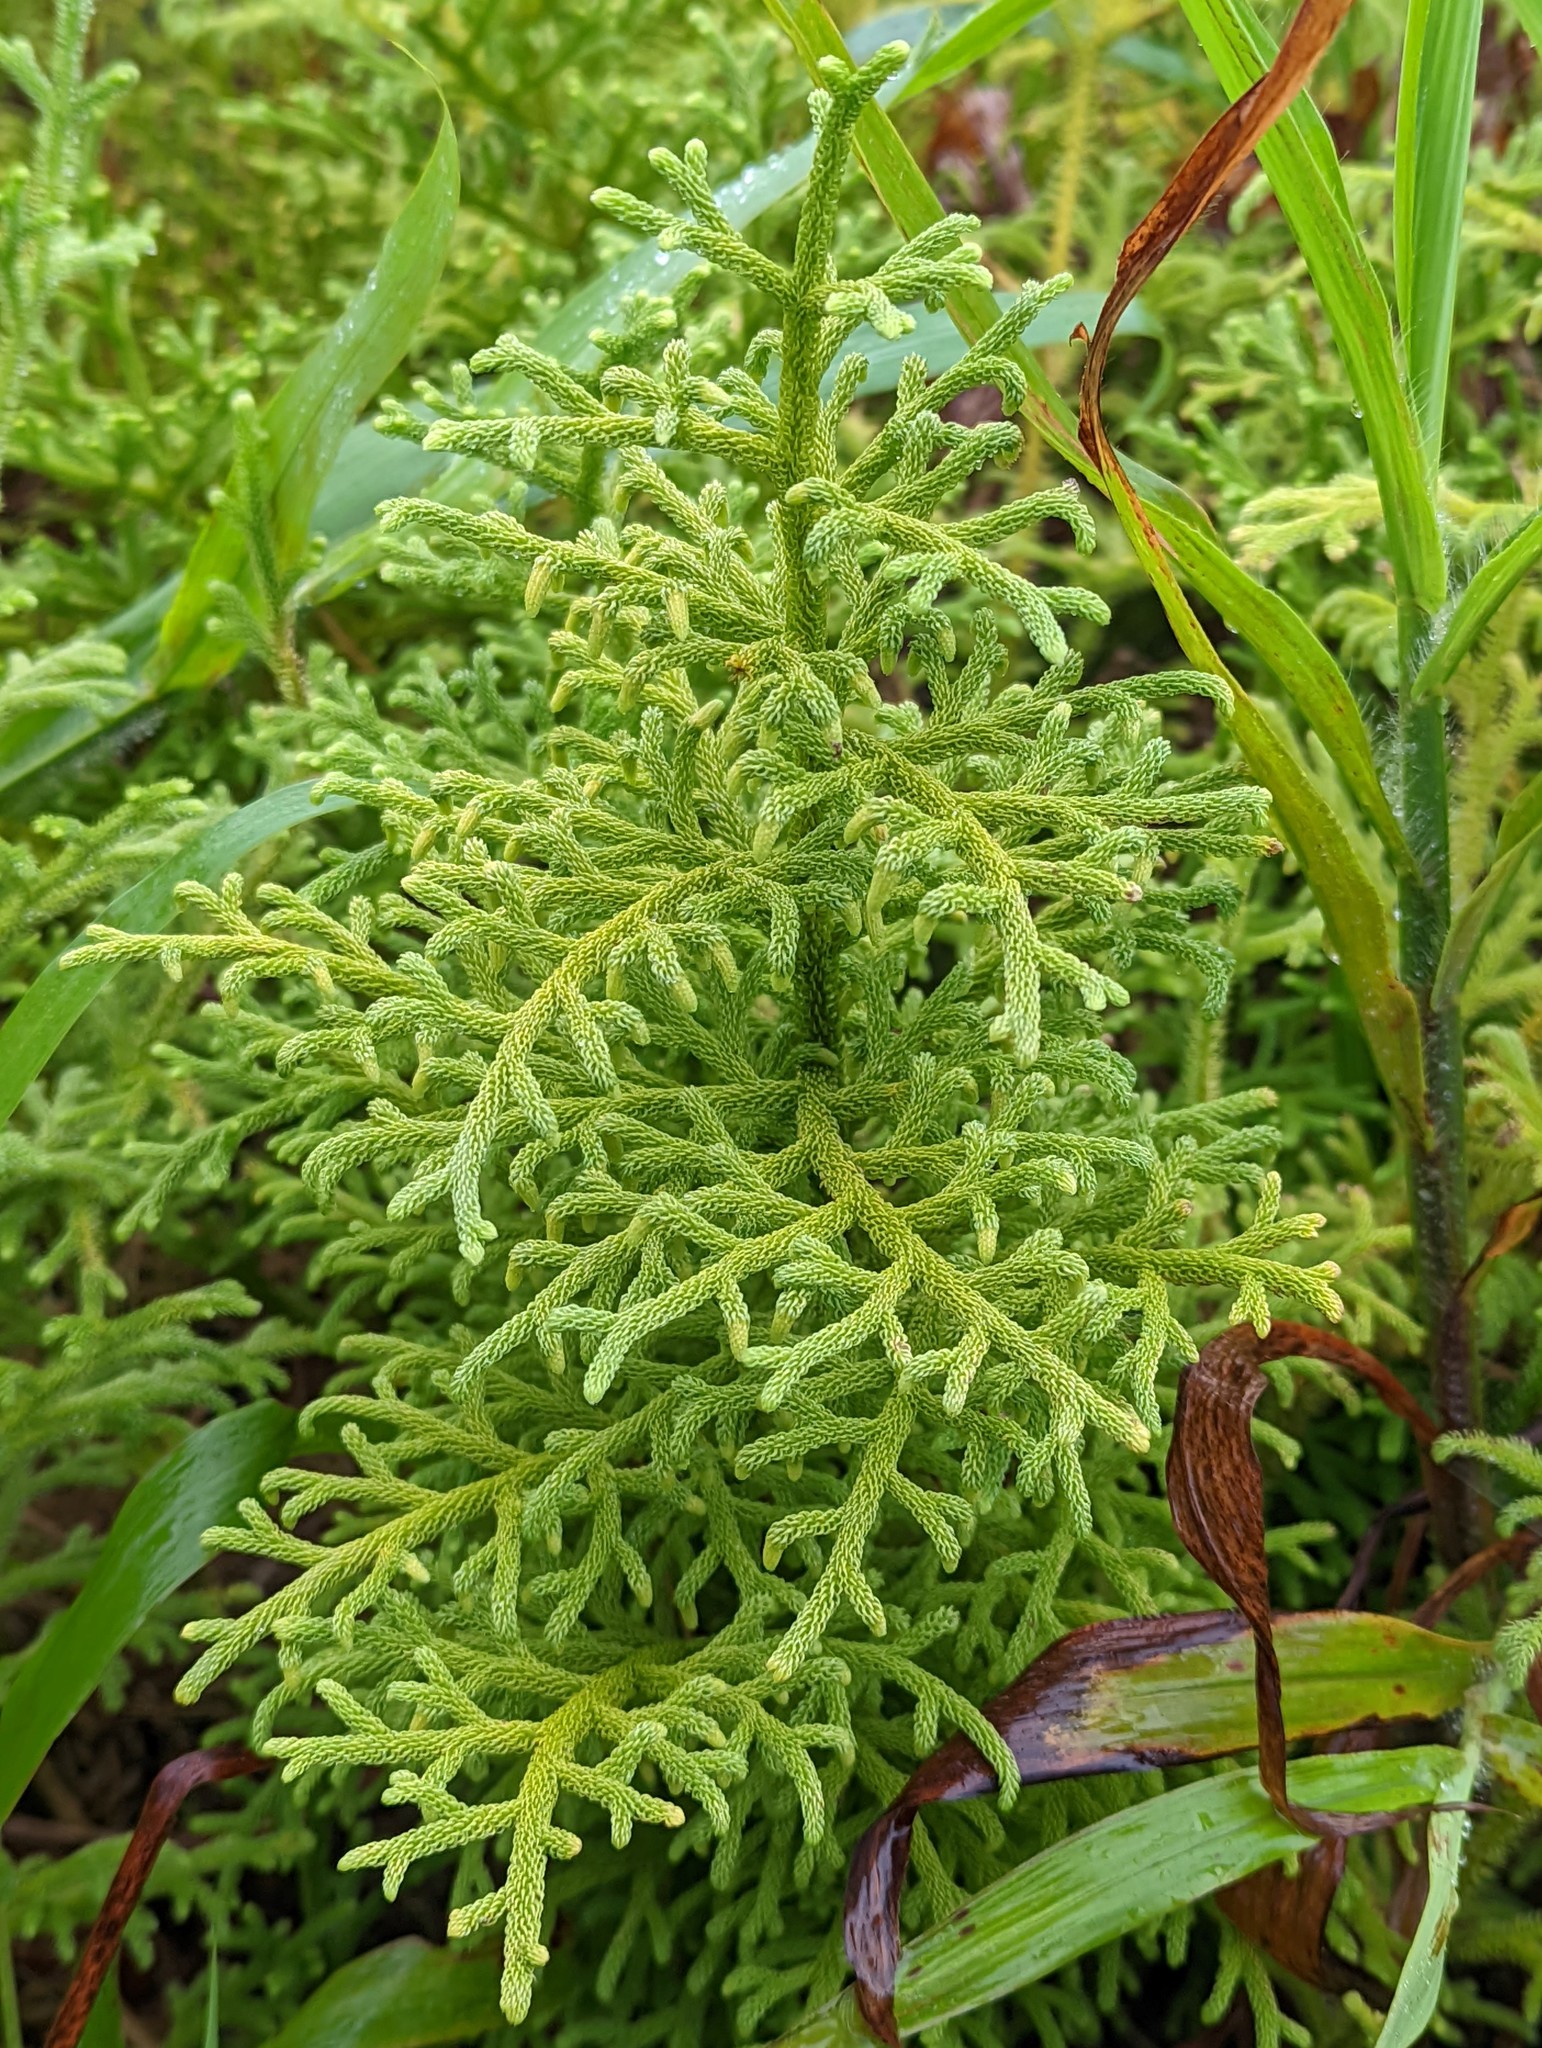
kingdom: Plantae
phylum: Tracheophyta
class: Lycopodiopsida
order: Lycopodiales
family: Lycopodiaceae
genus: Palhinhaea
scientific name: Palhinhaea cernua
